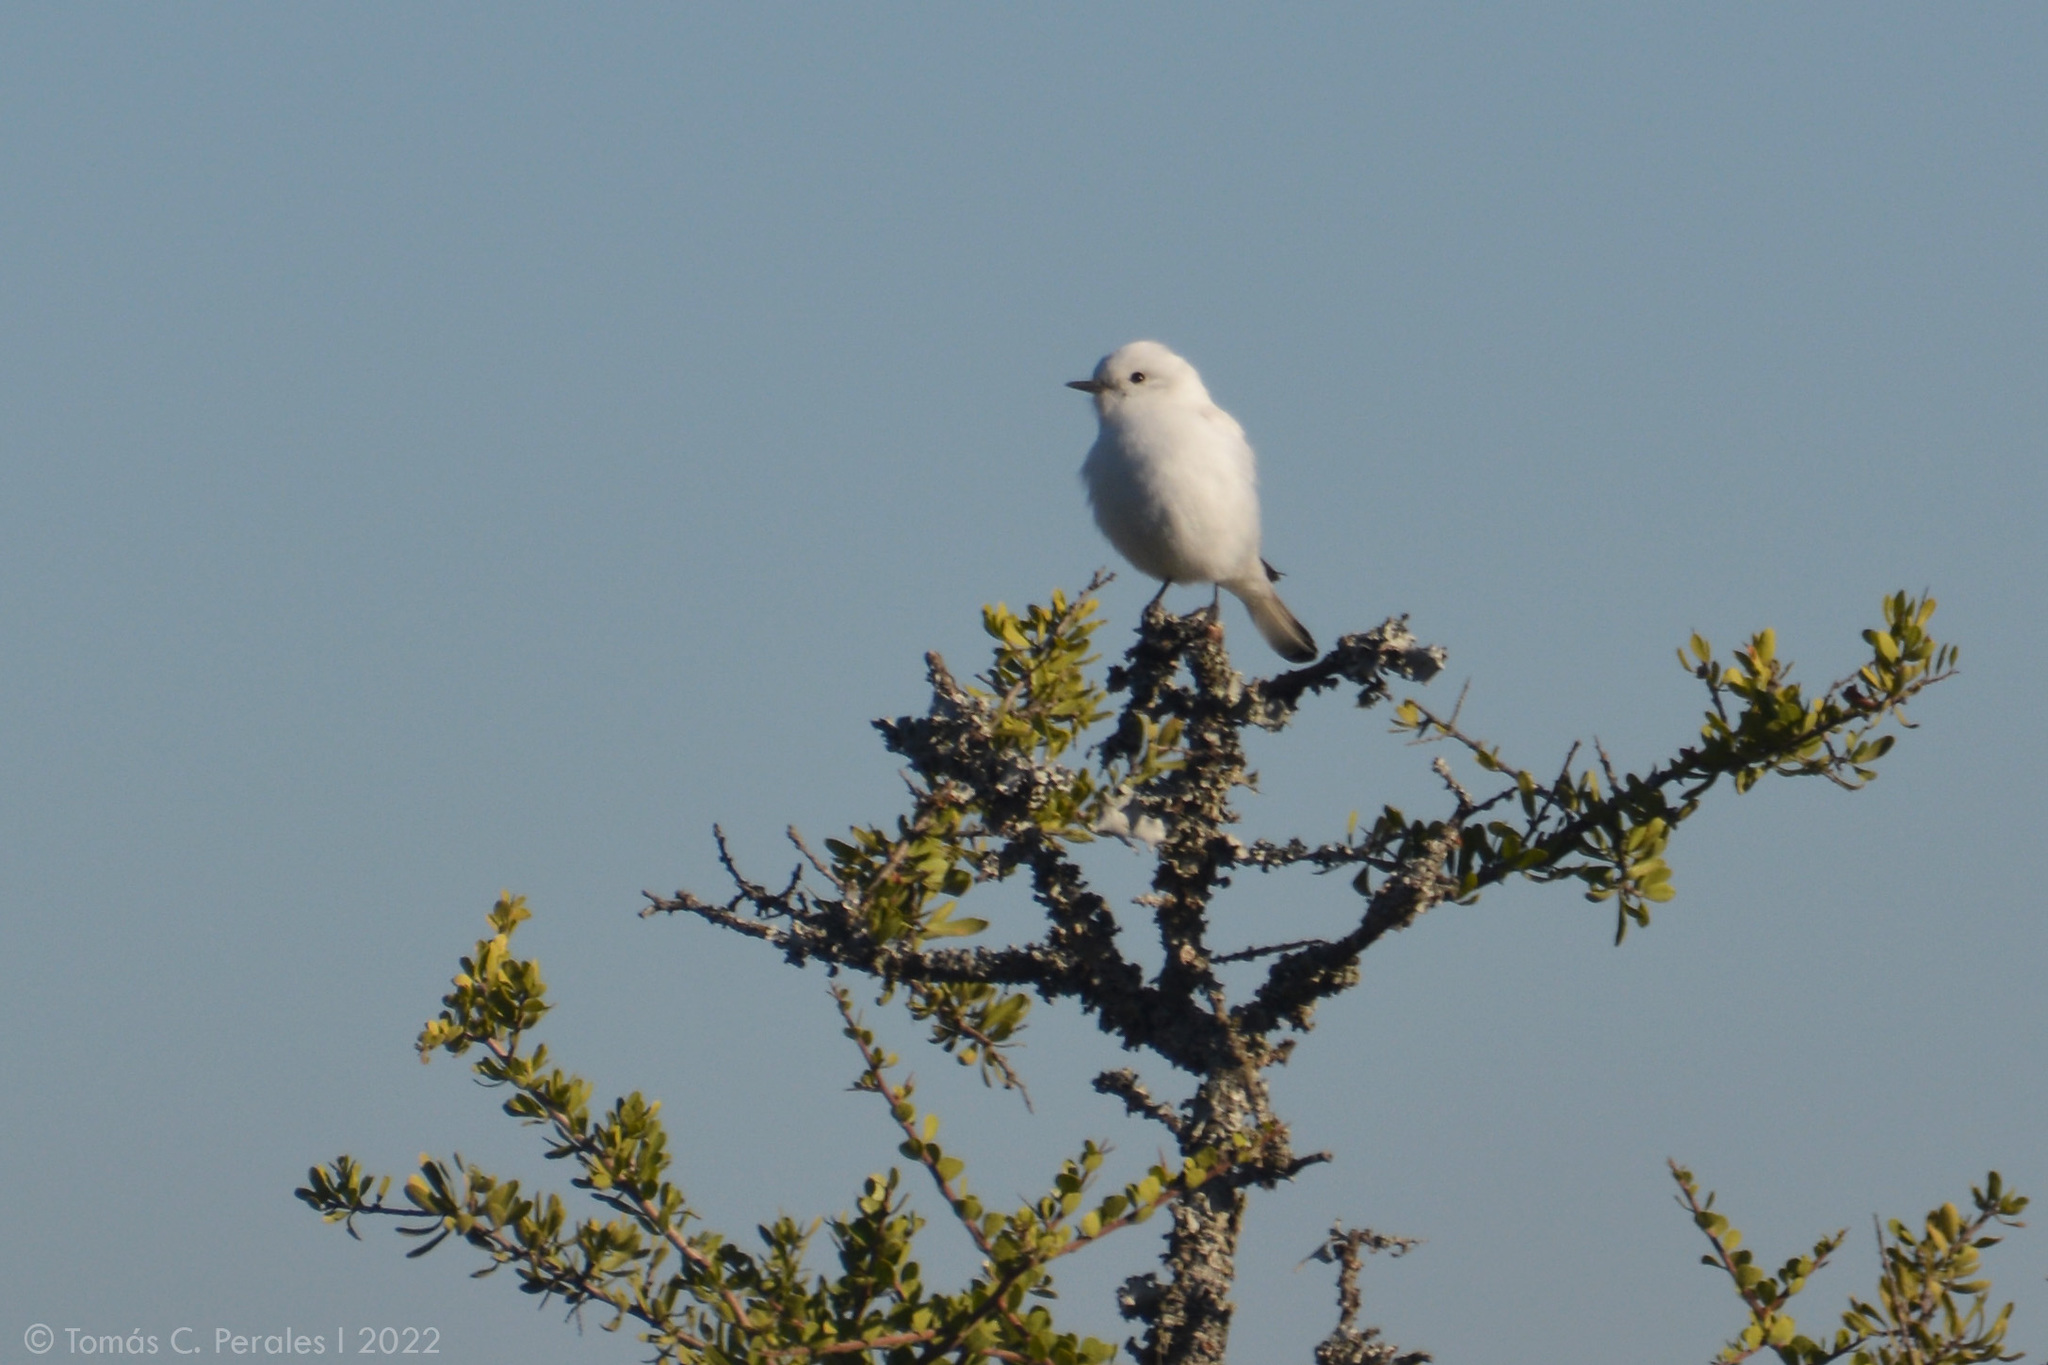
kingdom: Animalia
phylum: Chordata
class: Aves
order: Passeriformes
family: Tyrannidae
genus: Xolmis
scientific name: Xolmis irupero
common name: White monjita
